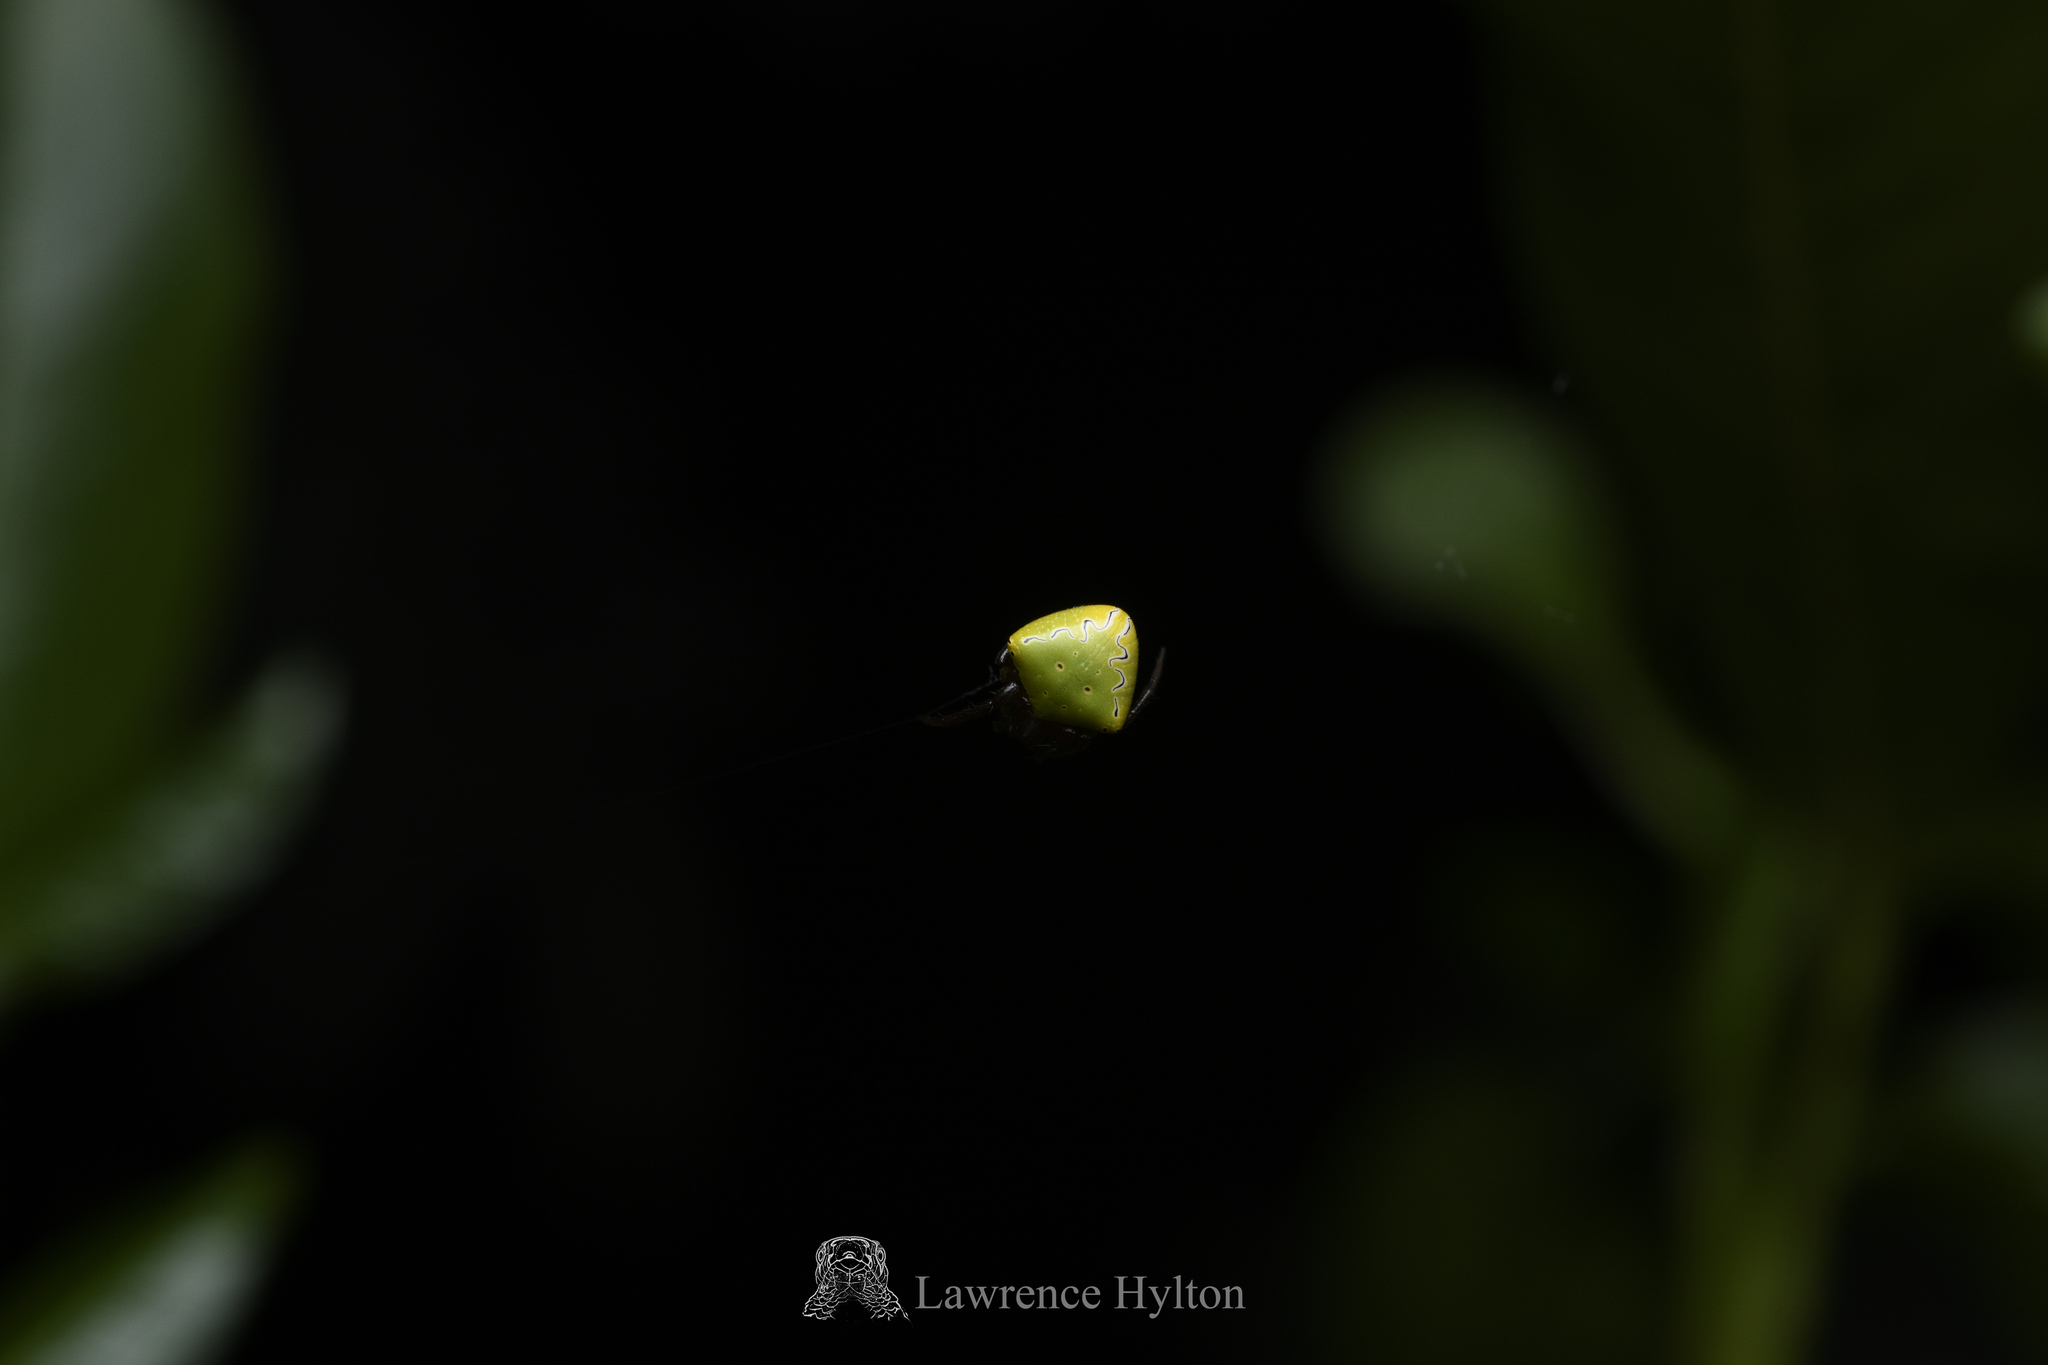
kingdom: Animalia
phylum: Arthropoda
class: Arachnida
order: Araneae
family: Araneidae
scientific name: Araneidae
